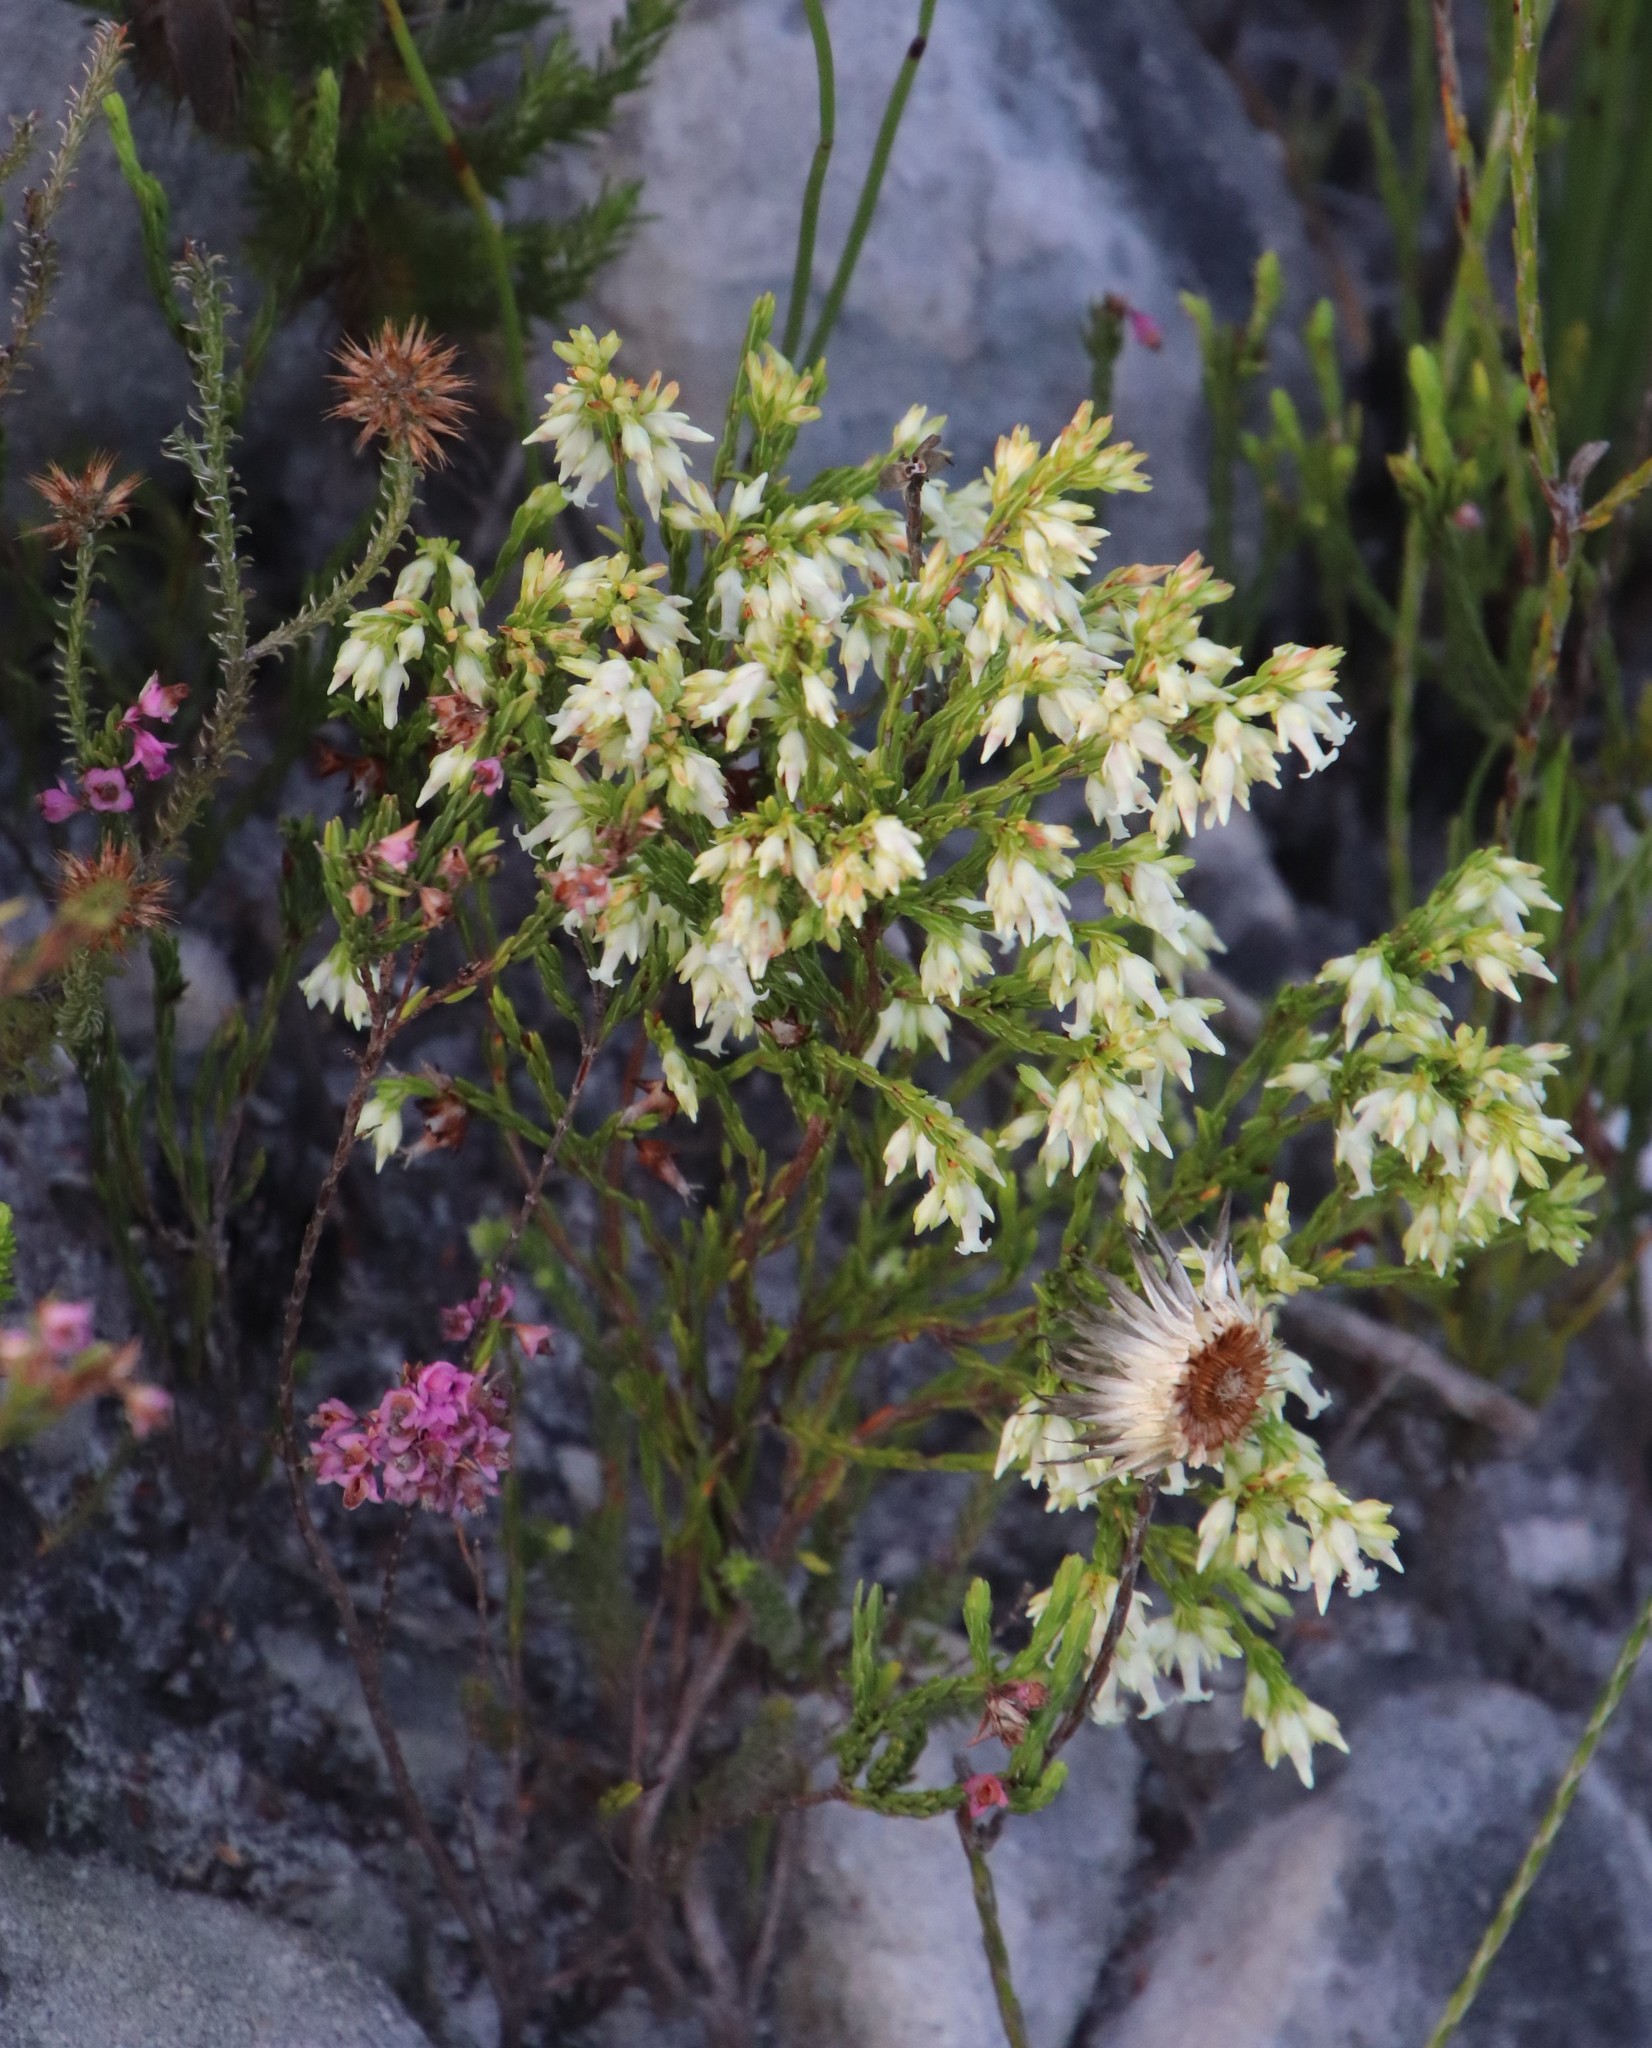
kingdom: Plantae
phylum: Tracheophyta
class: Magnoliopsida
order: Ericales
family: Ericaceae
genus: Erica
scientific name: Erica lutea
